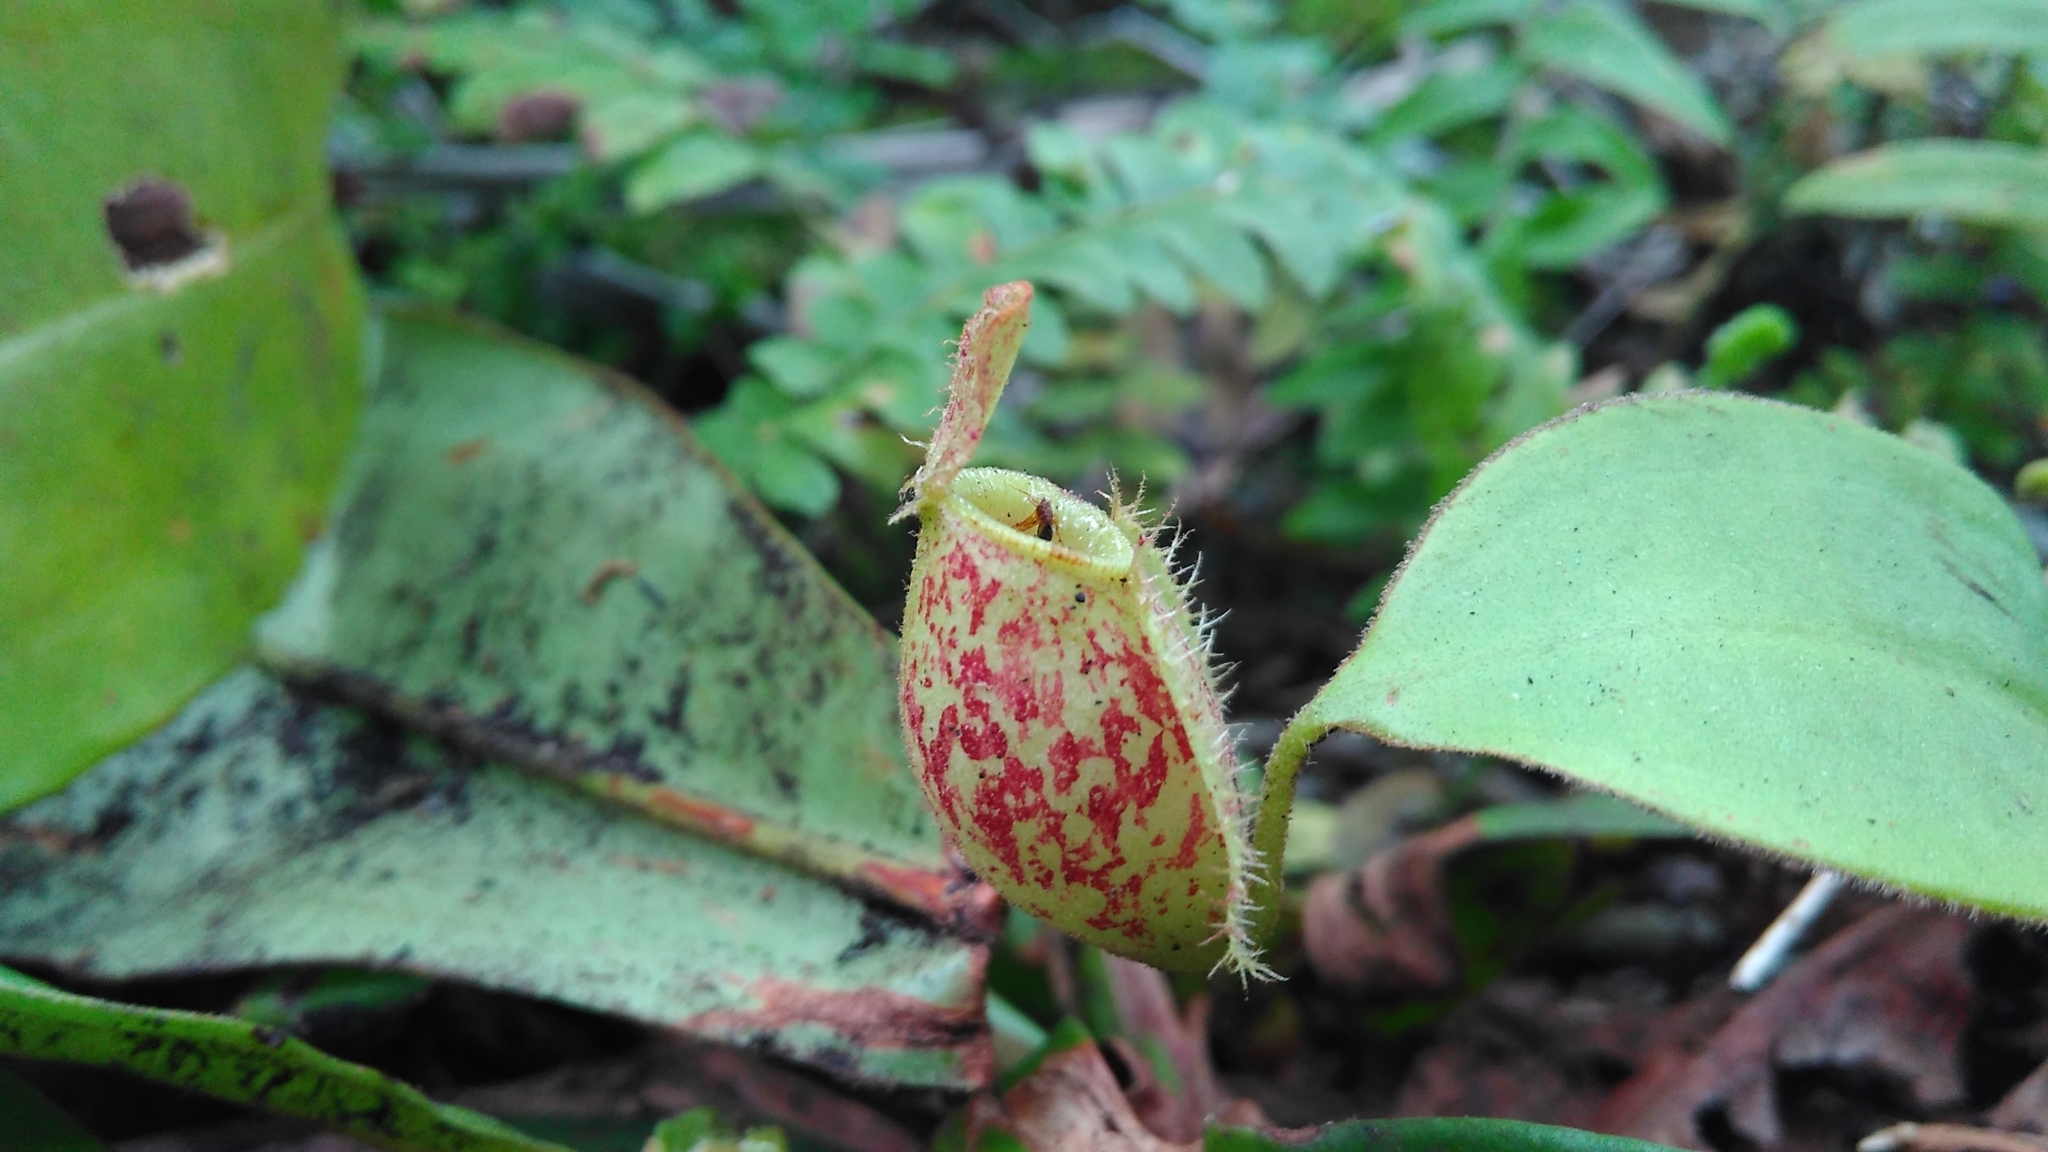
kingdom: Plantae
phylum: Tracheophyta
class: Magnoliopsida
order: Caryophyllales
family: Nepenthaceae
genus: Nepenthes
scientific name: Nepenthes ampullaria
